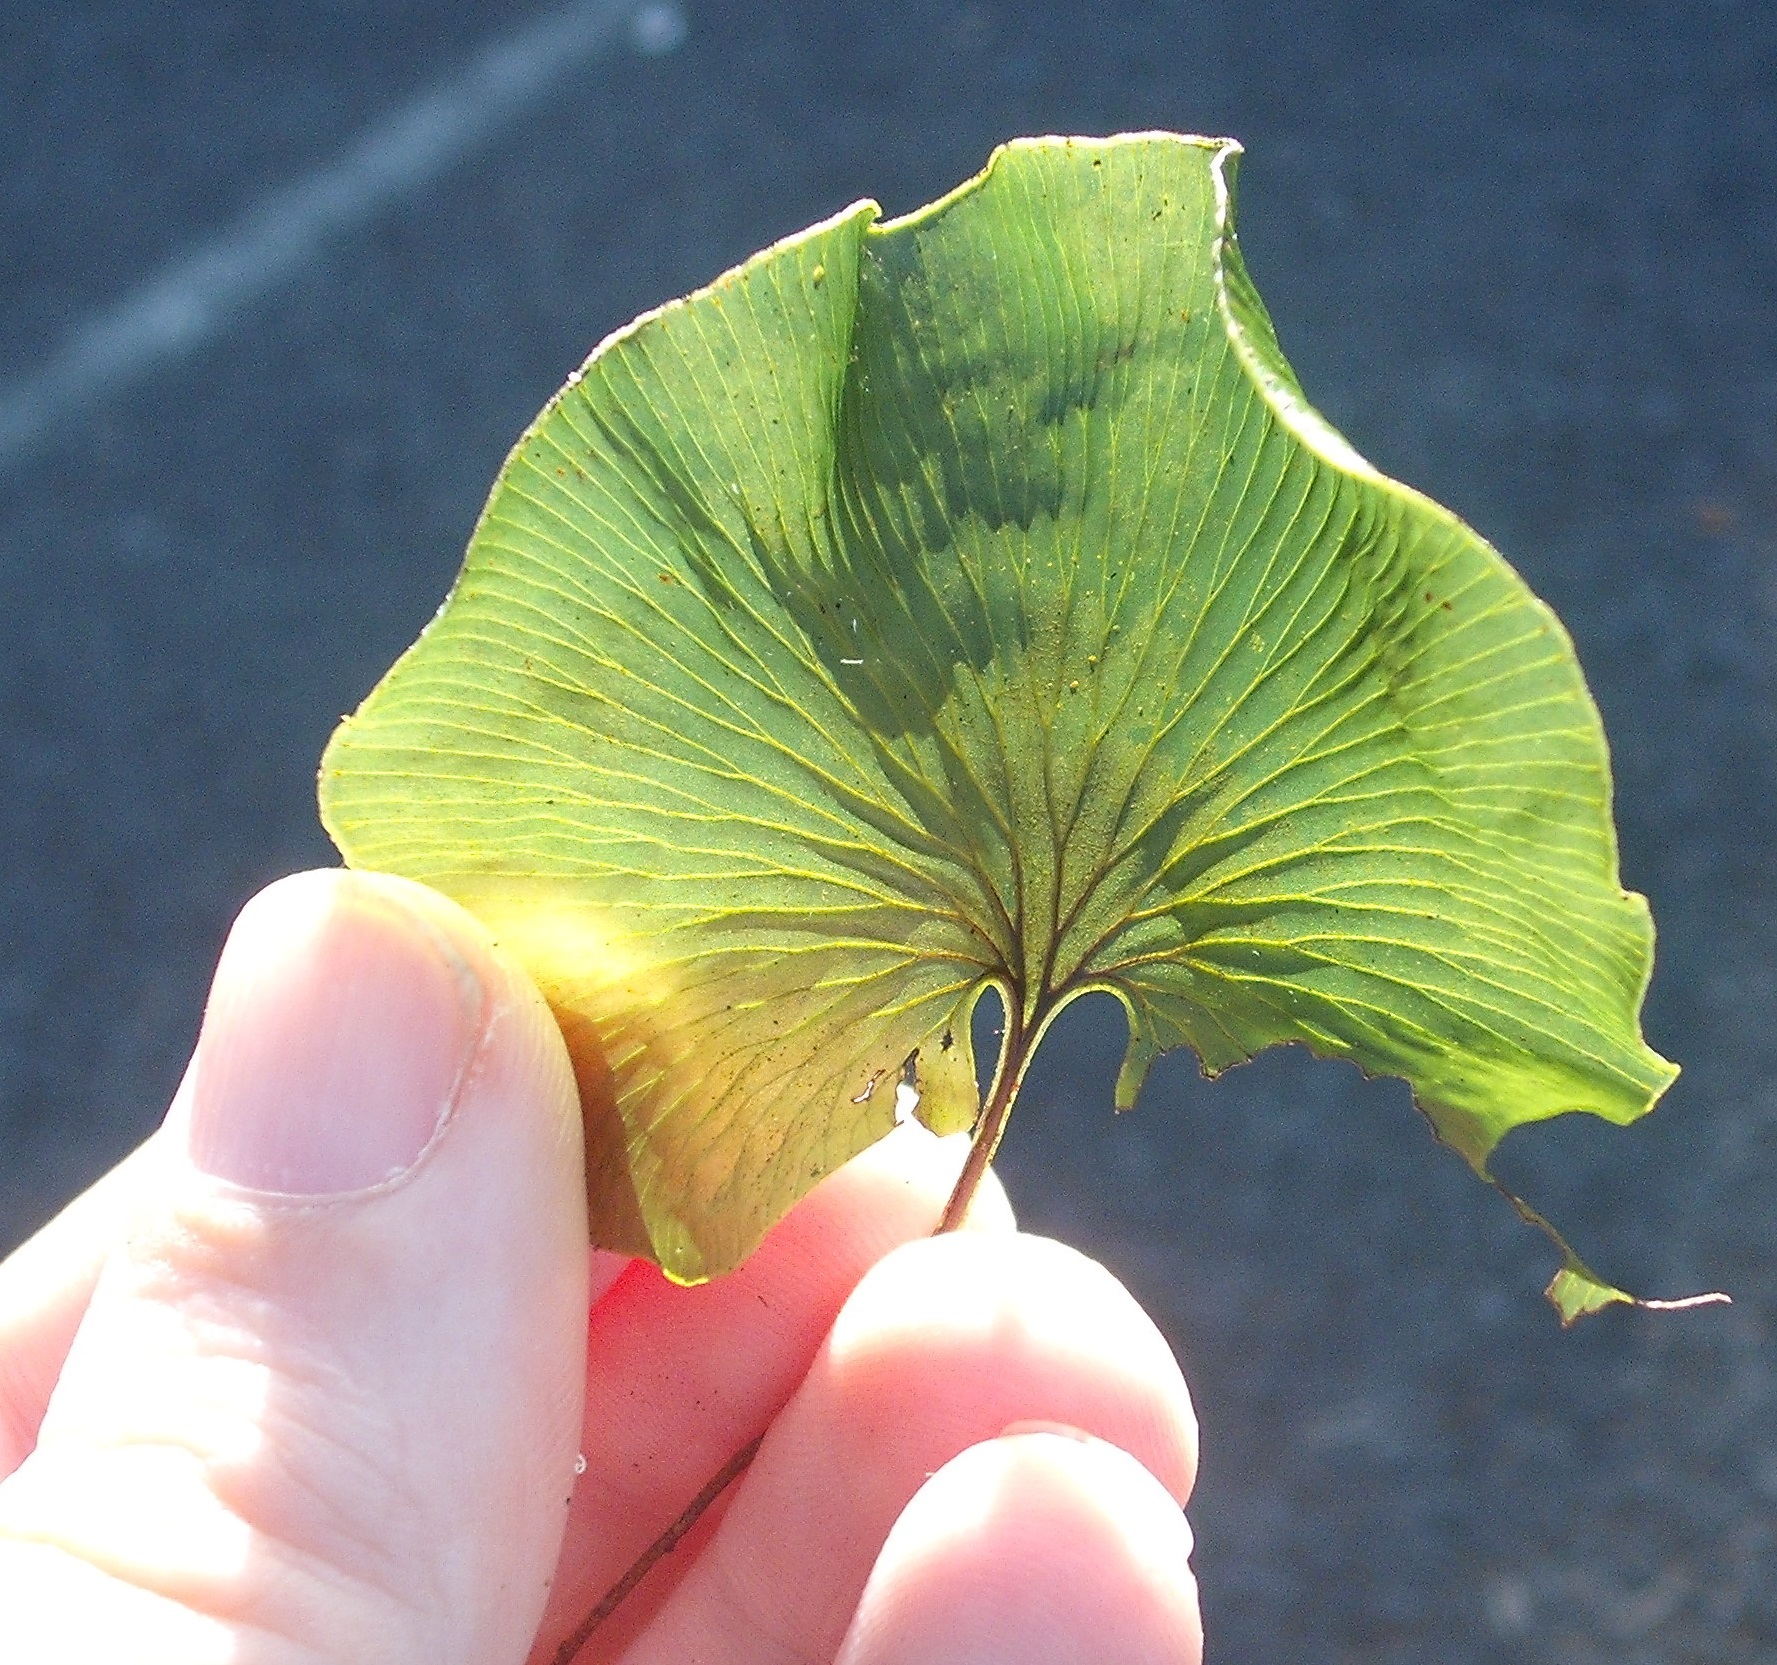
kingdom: Plantae
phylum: Tracheophyta
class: Polypodiopsida
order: Hymenophyllales
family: Hymenophyllaceae
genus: Hymenophyllum
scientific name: Hymenophyllum nephrophyllum
